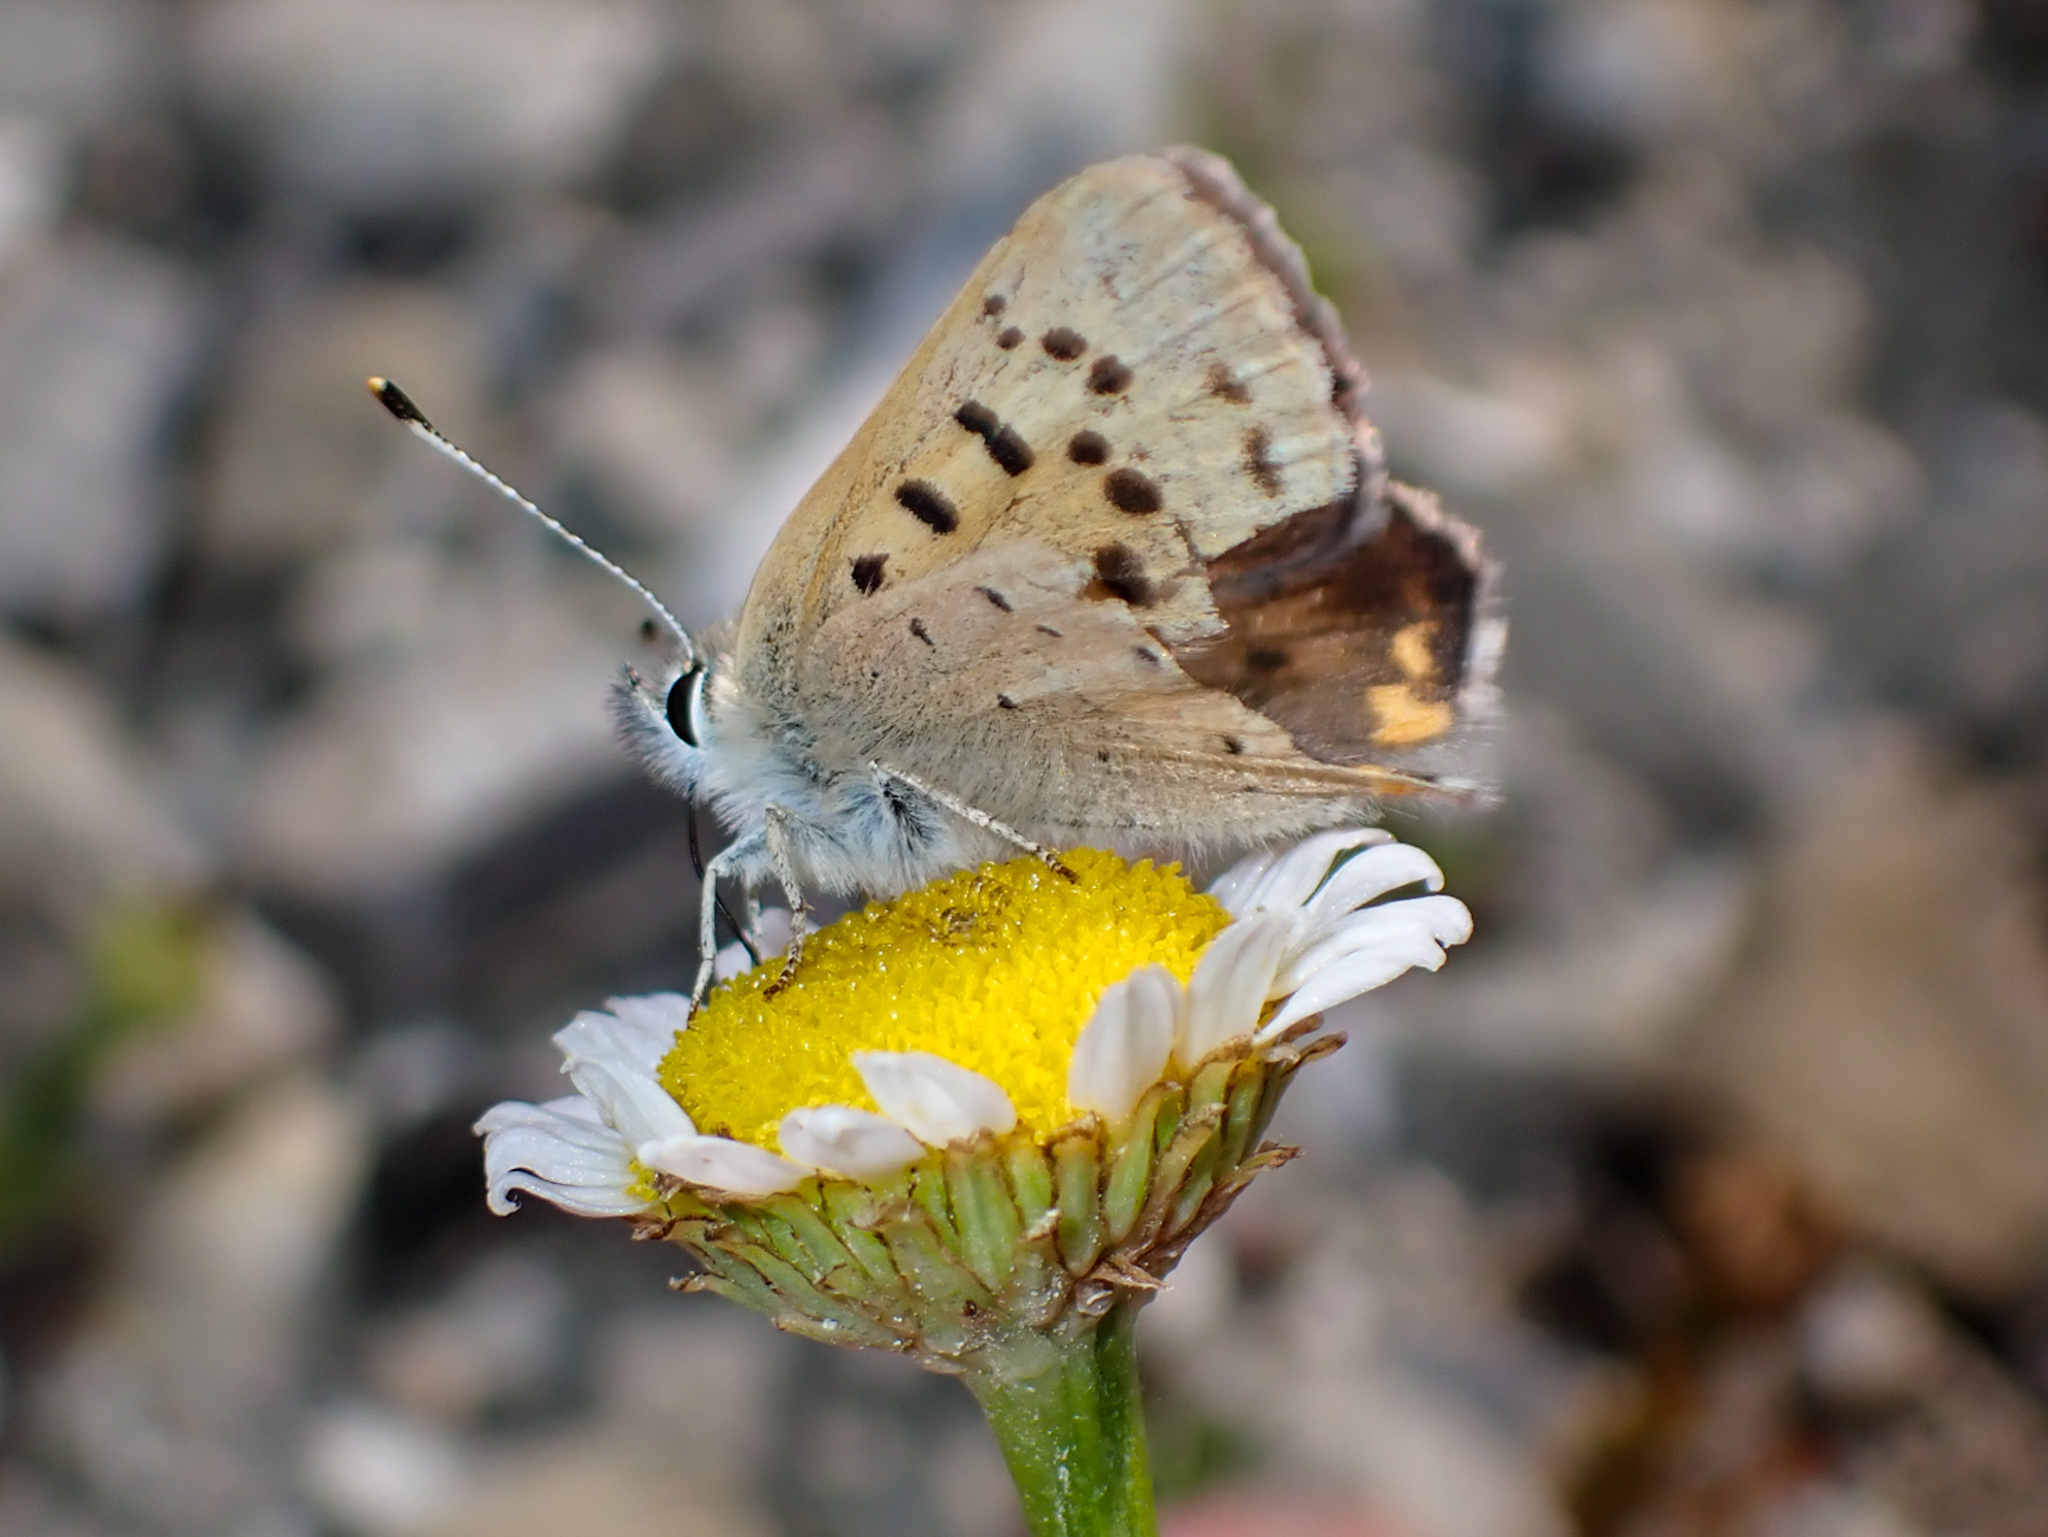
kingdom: Animalia
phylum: Arthropoda
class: Insecta
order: Lepidoptera
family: Lycaenidae
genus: Tharsalea
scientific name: Tharsalea helloides
